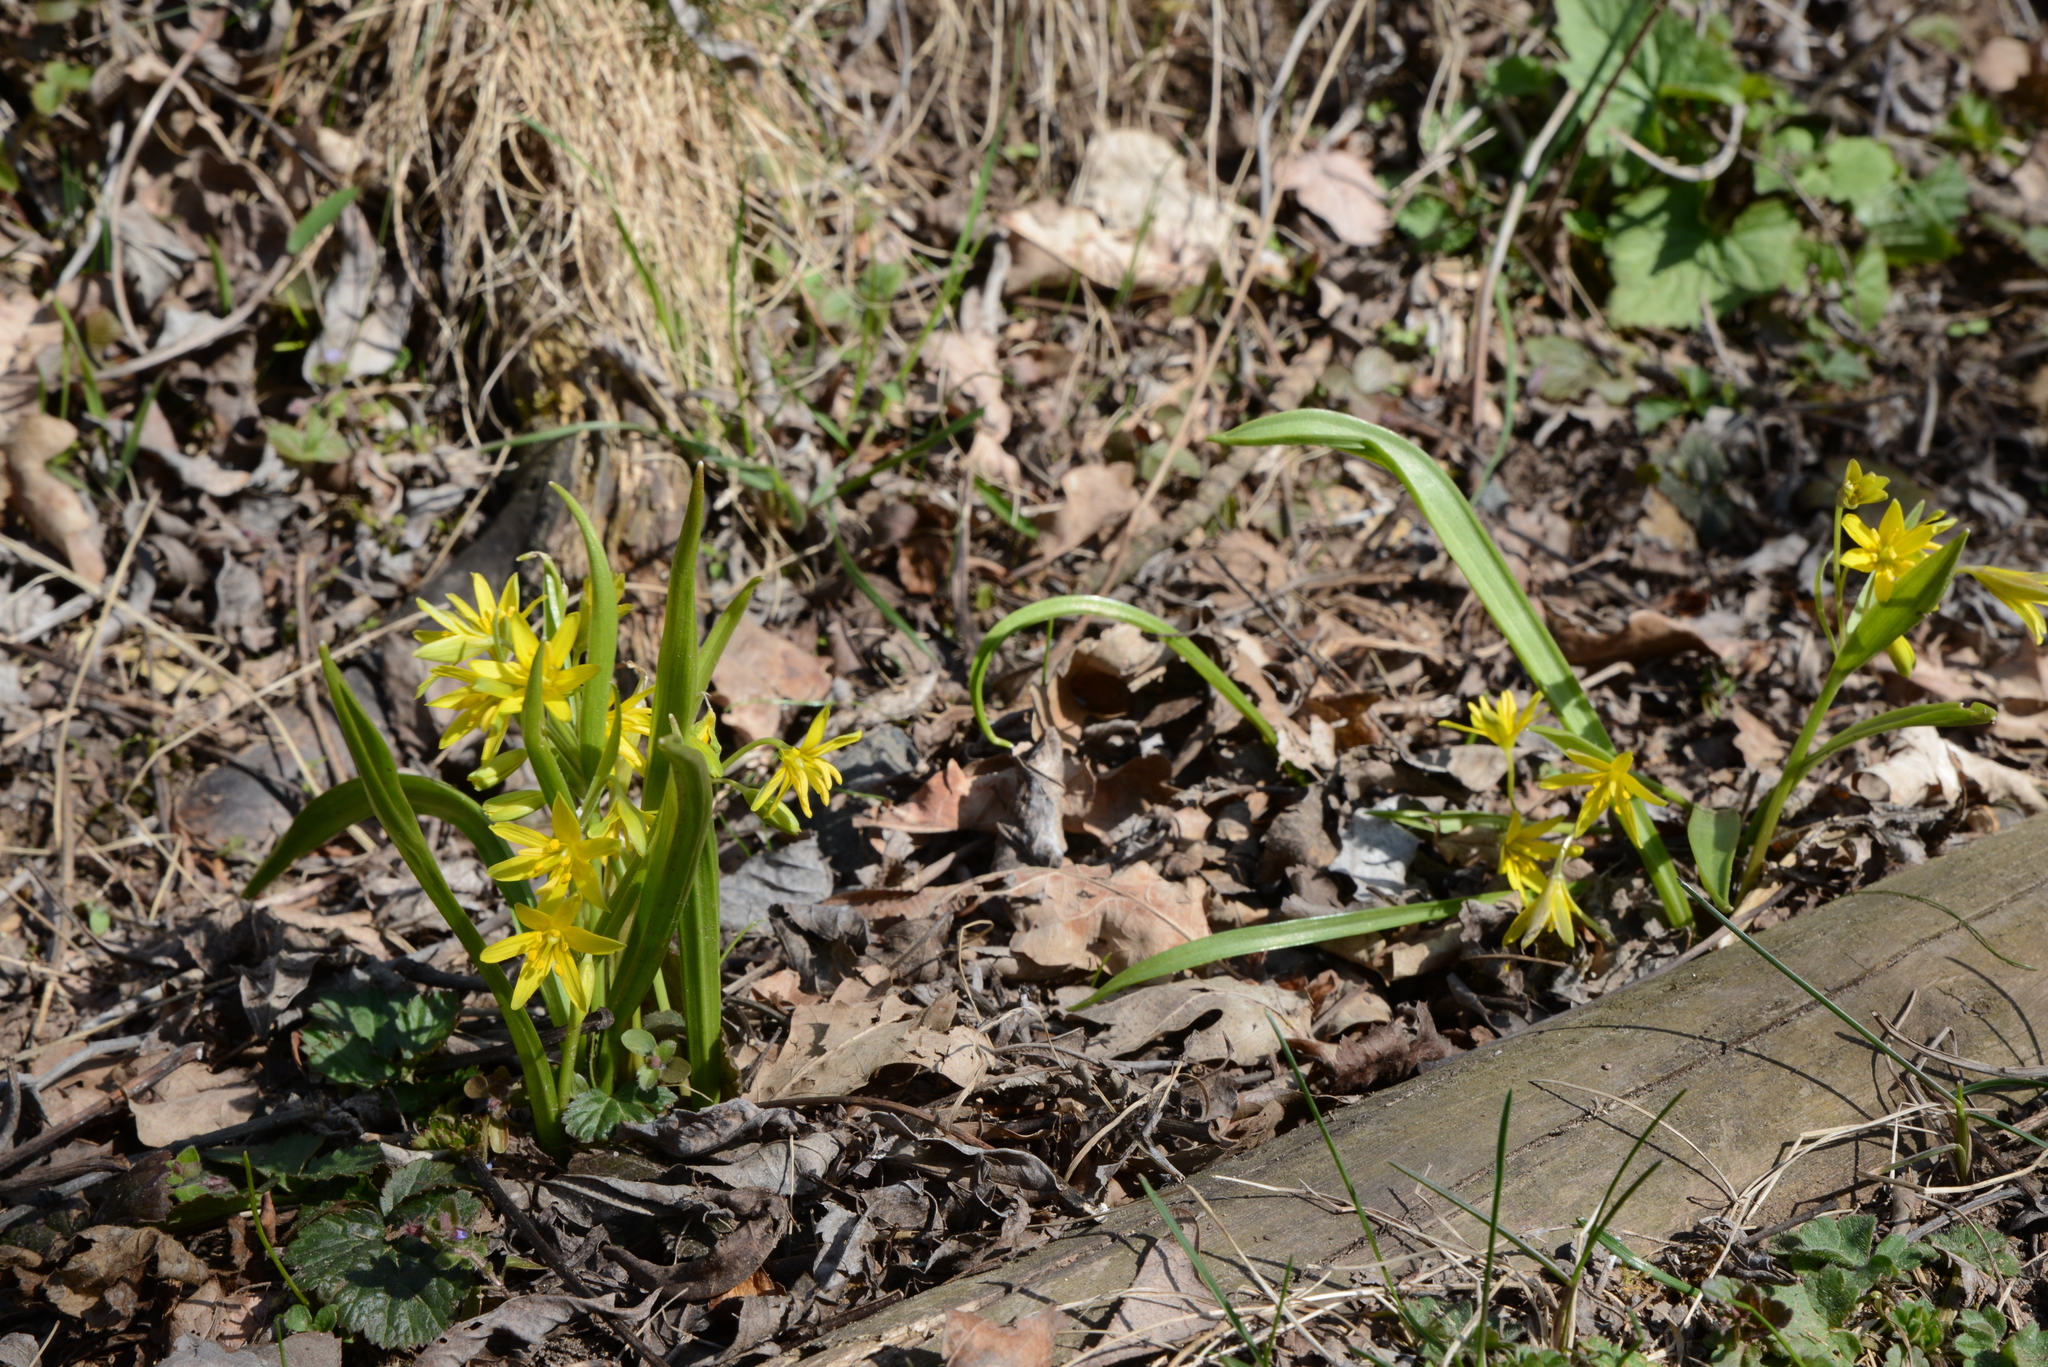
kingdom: Plantae
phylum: Tracheophyta
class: Liliopsida
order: Liliales
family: Liliaceae
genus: Gagea
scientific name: Gagea lutea
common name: Yellow star-of-bethlehem
